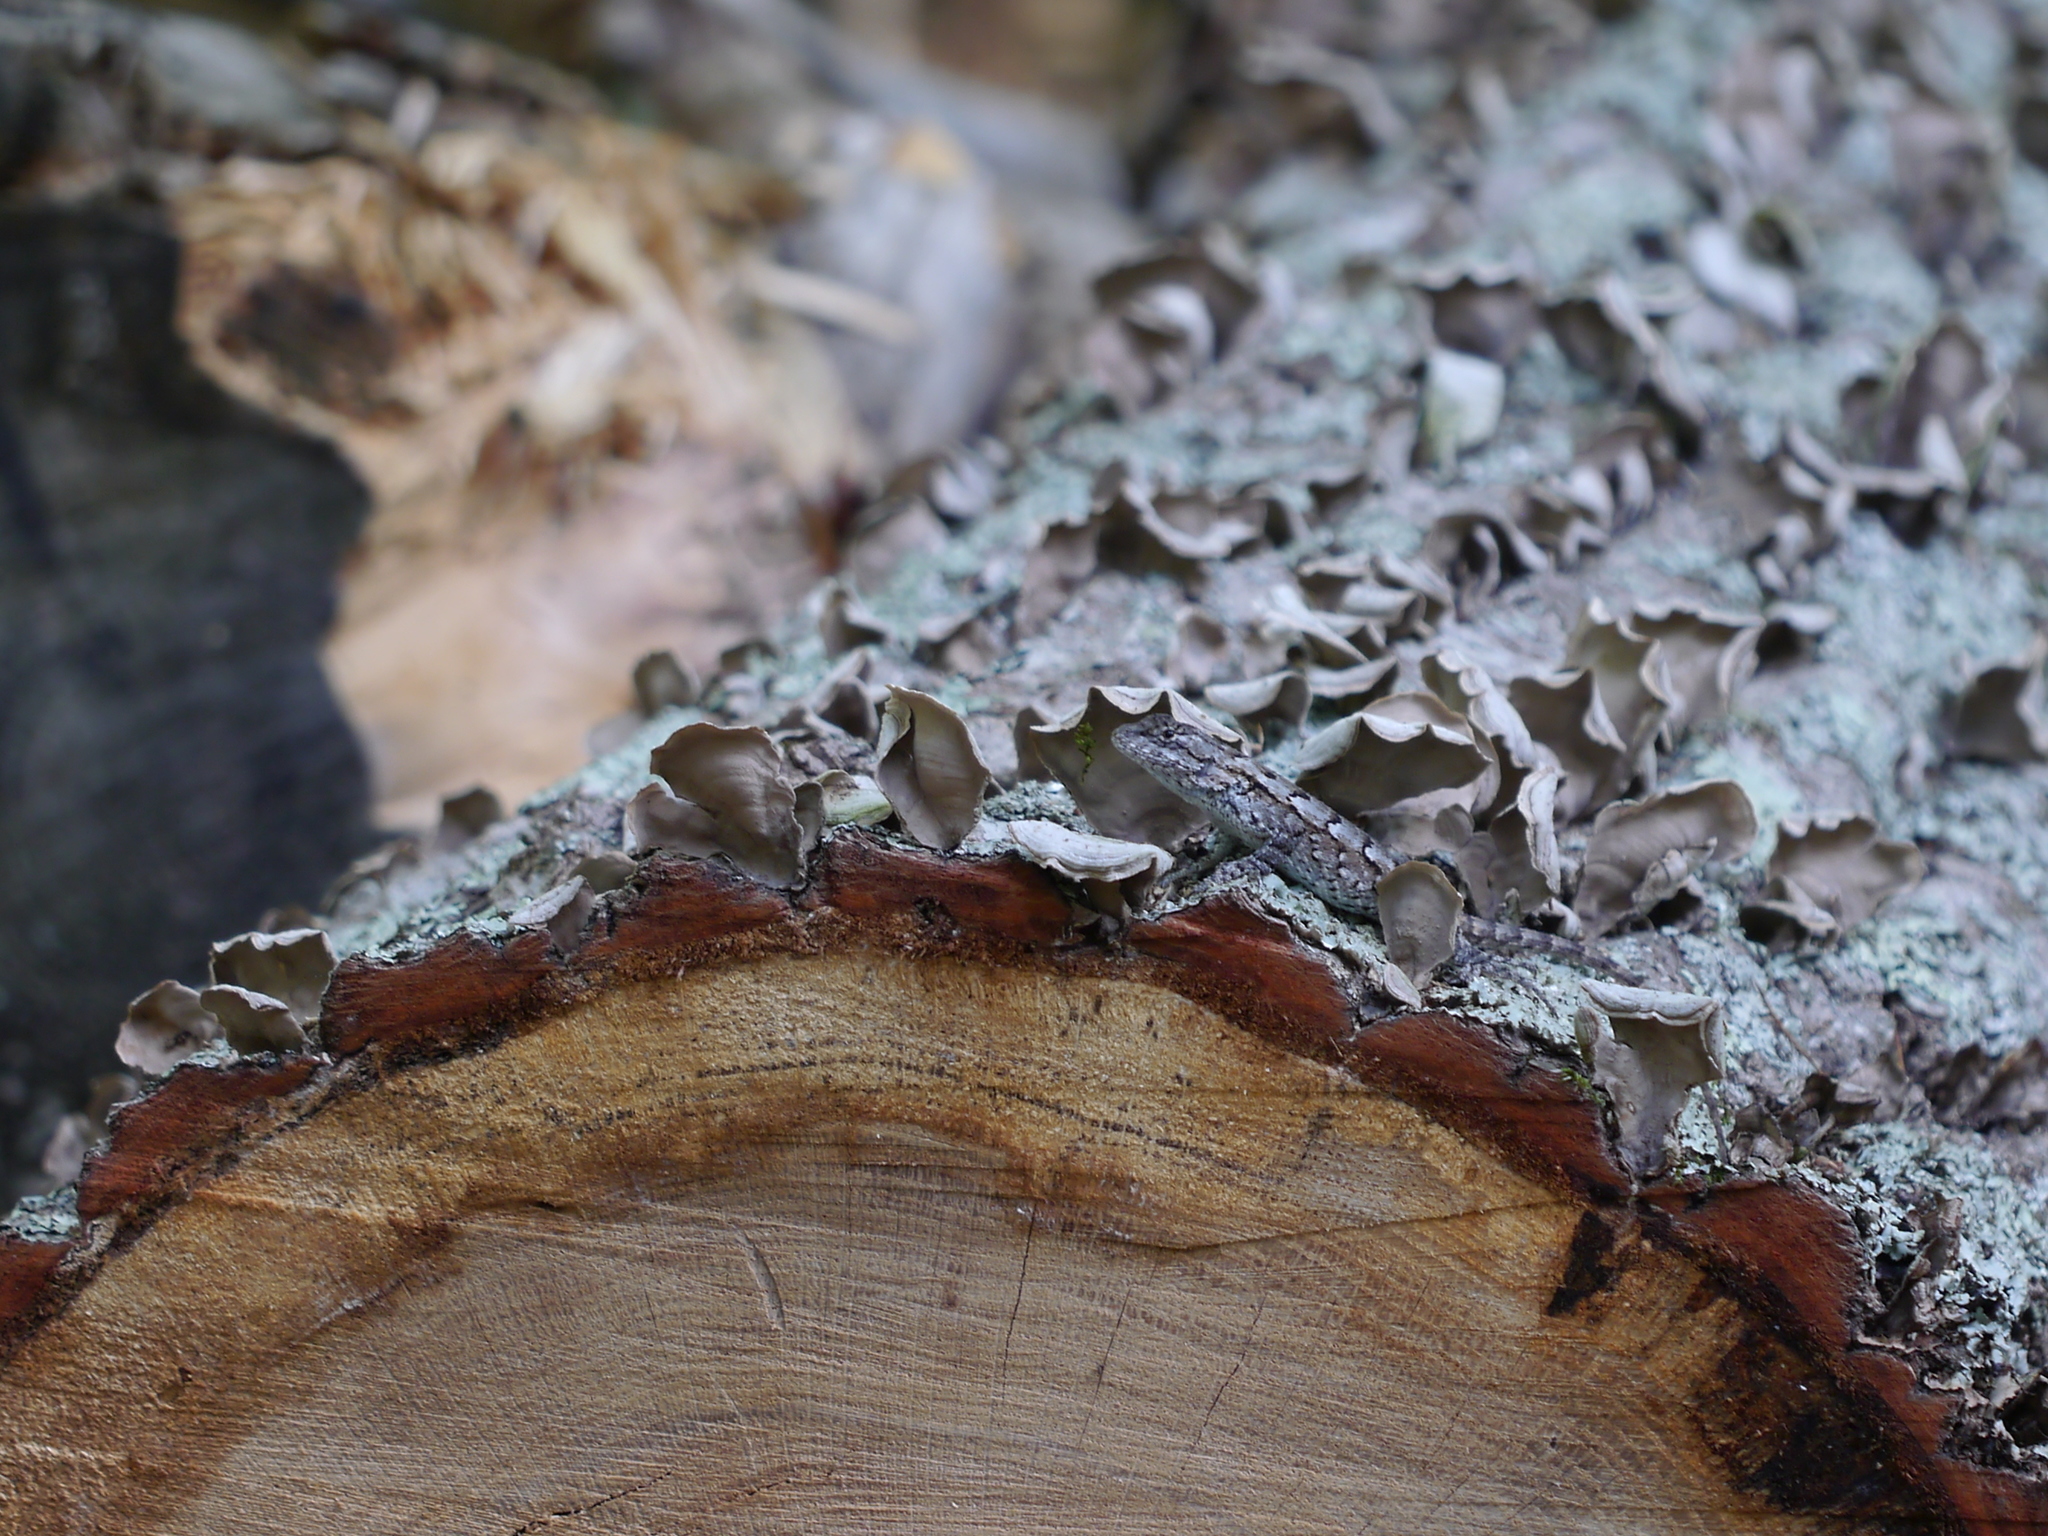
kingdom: Animalia
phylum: Chordata
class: Squamata
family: Phrynosomatidae
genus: Sceloporus
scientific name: Sceloporus undulatus
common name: Eastern fence lizard
